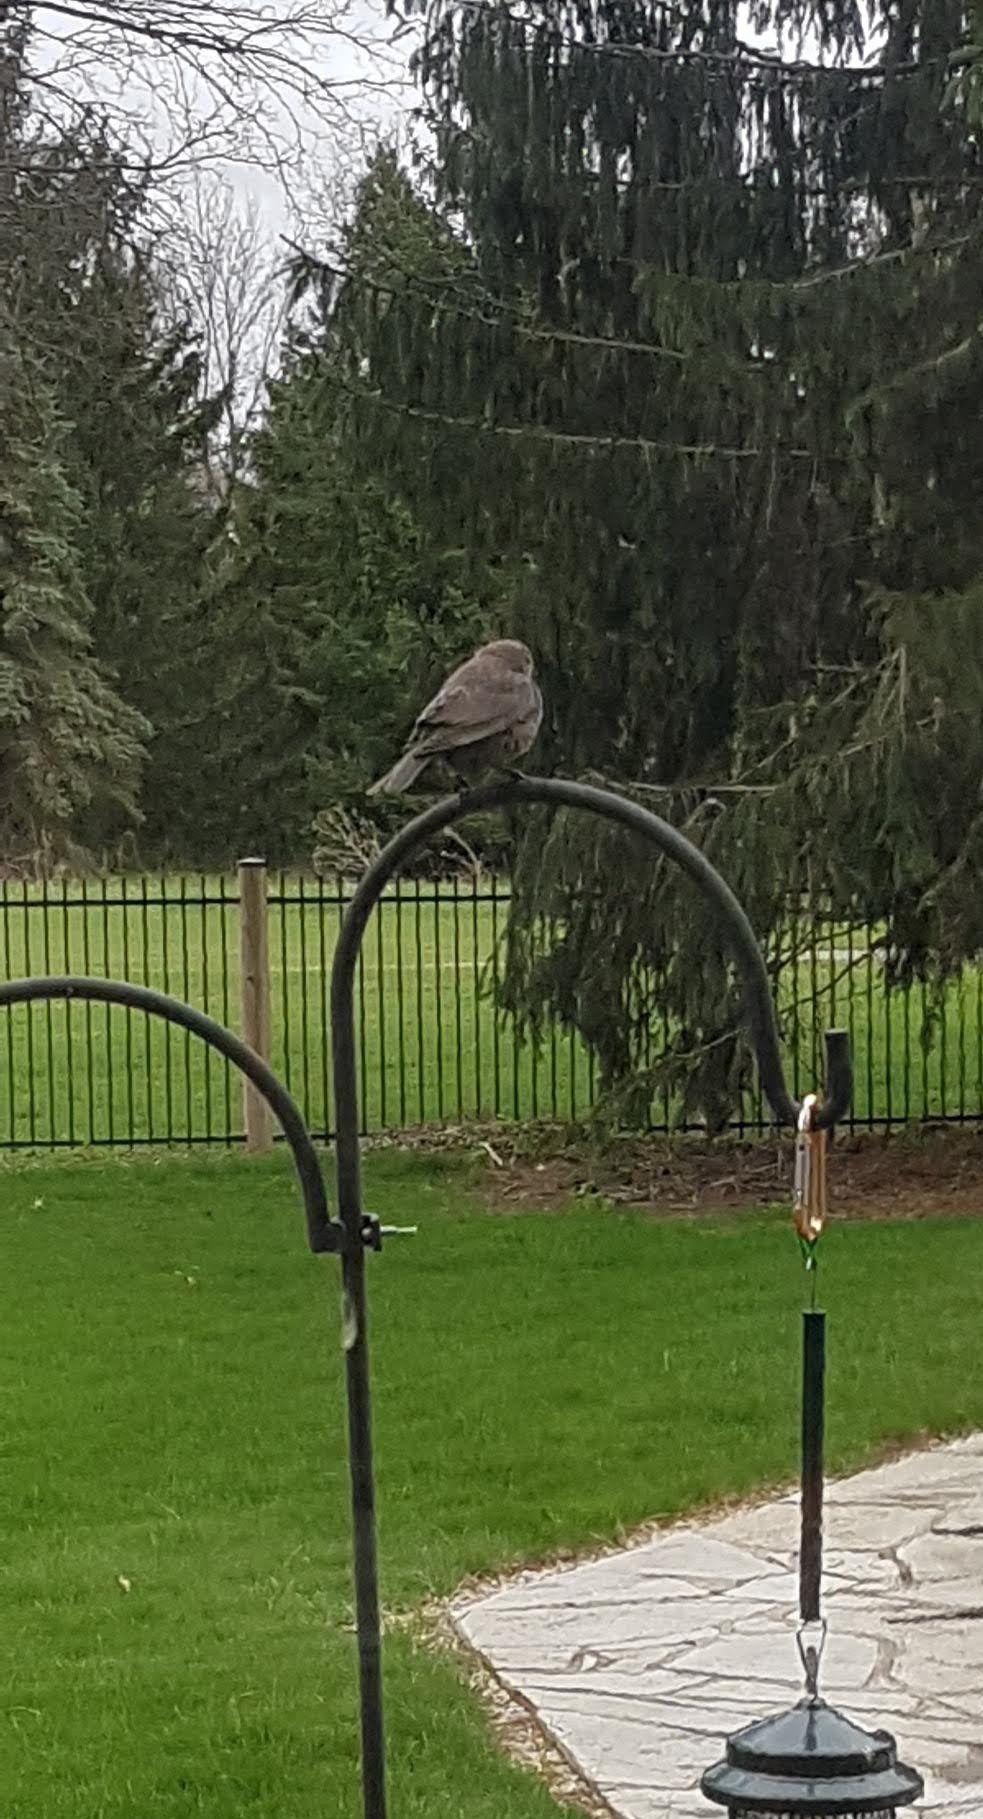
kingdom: Animalia
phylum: Chordata
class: Aves
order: Passeriformes
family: Icteridae
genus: Molothrus
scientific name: Molothrus ater
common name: Brown-headed cowbird
